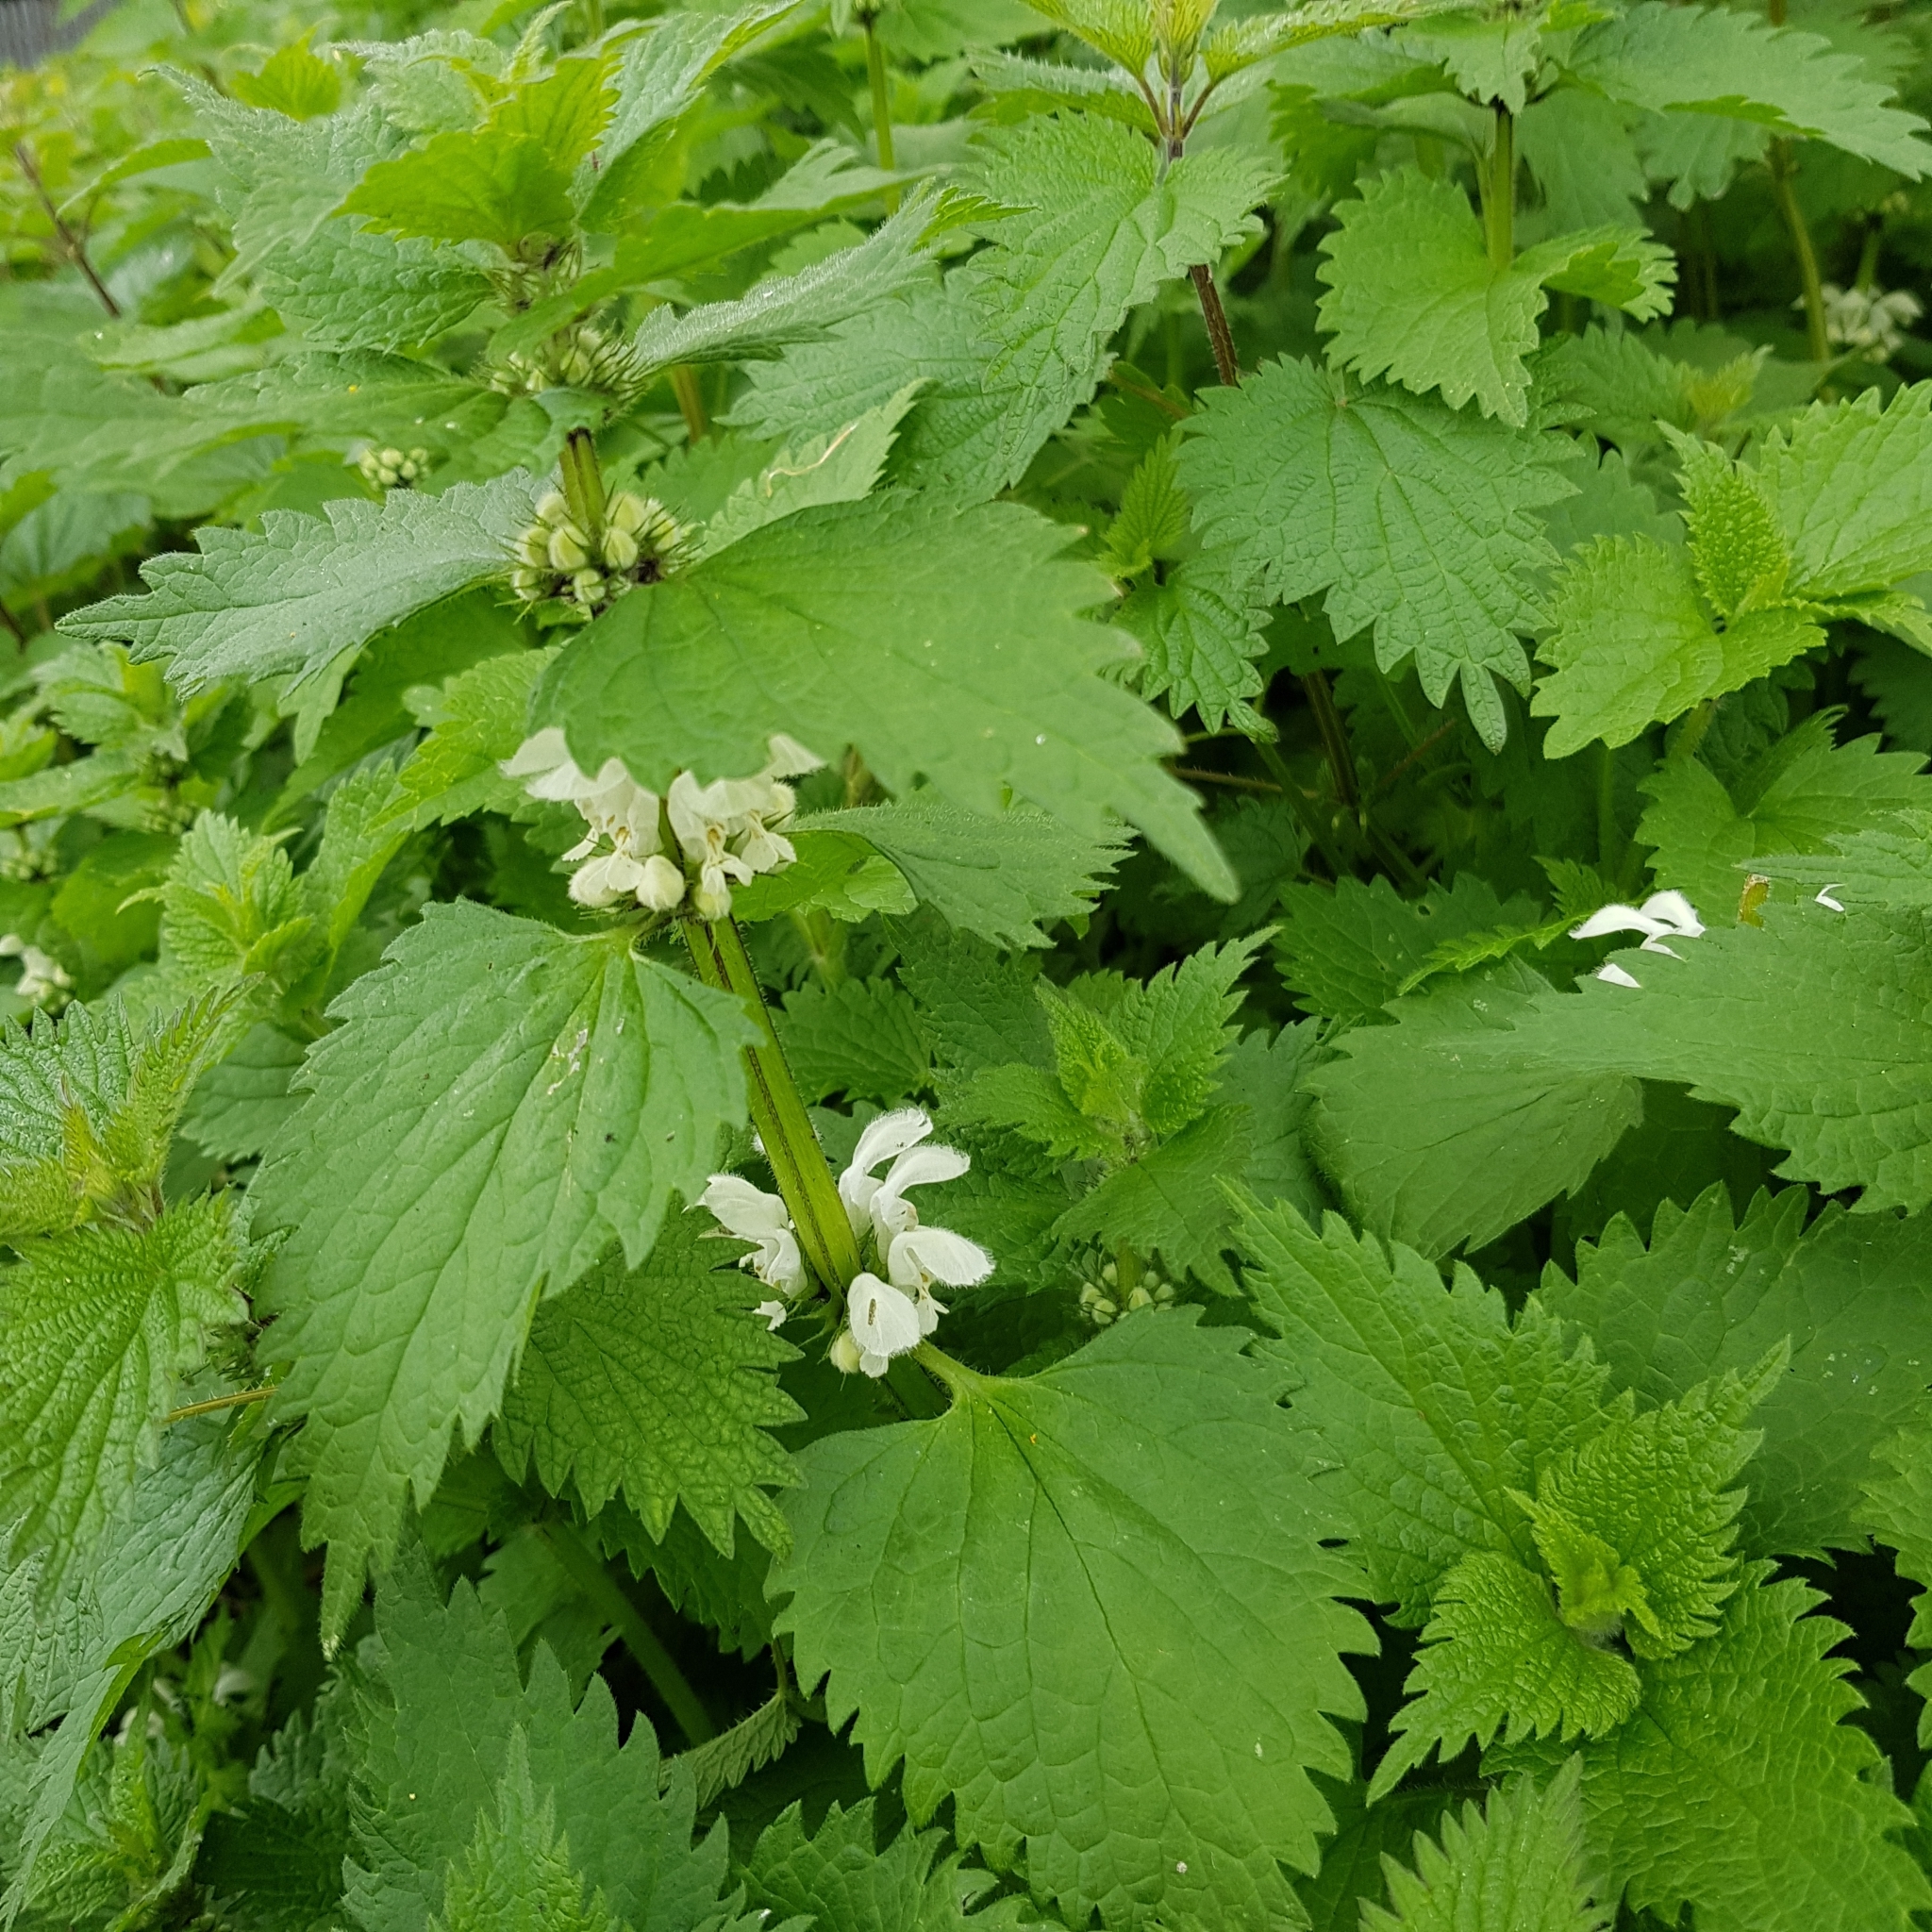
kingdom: Plantae
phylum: Tracheophyta
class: Magnoliopsida
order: Lamiales
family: Lamiaceae
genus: Lamium
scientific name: Lamium album
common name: White dead-nettle
